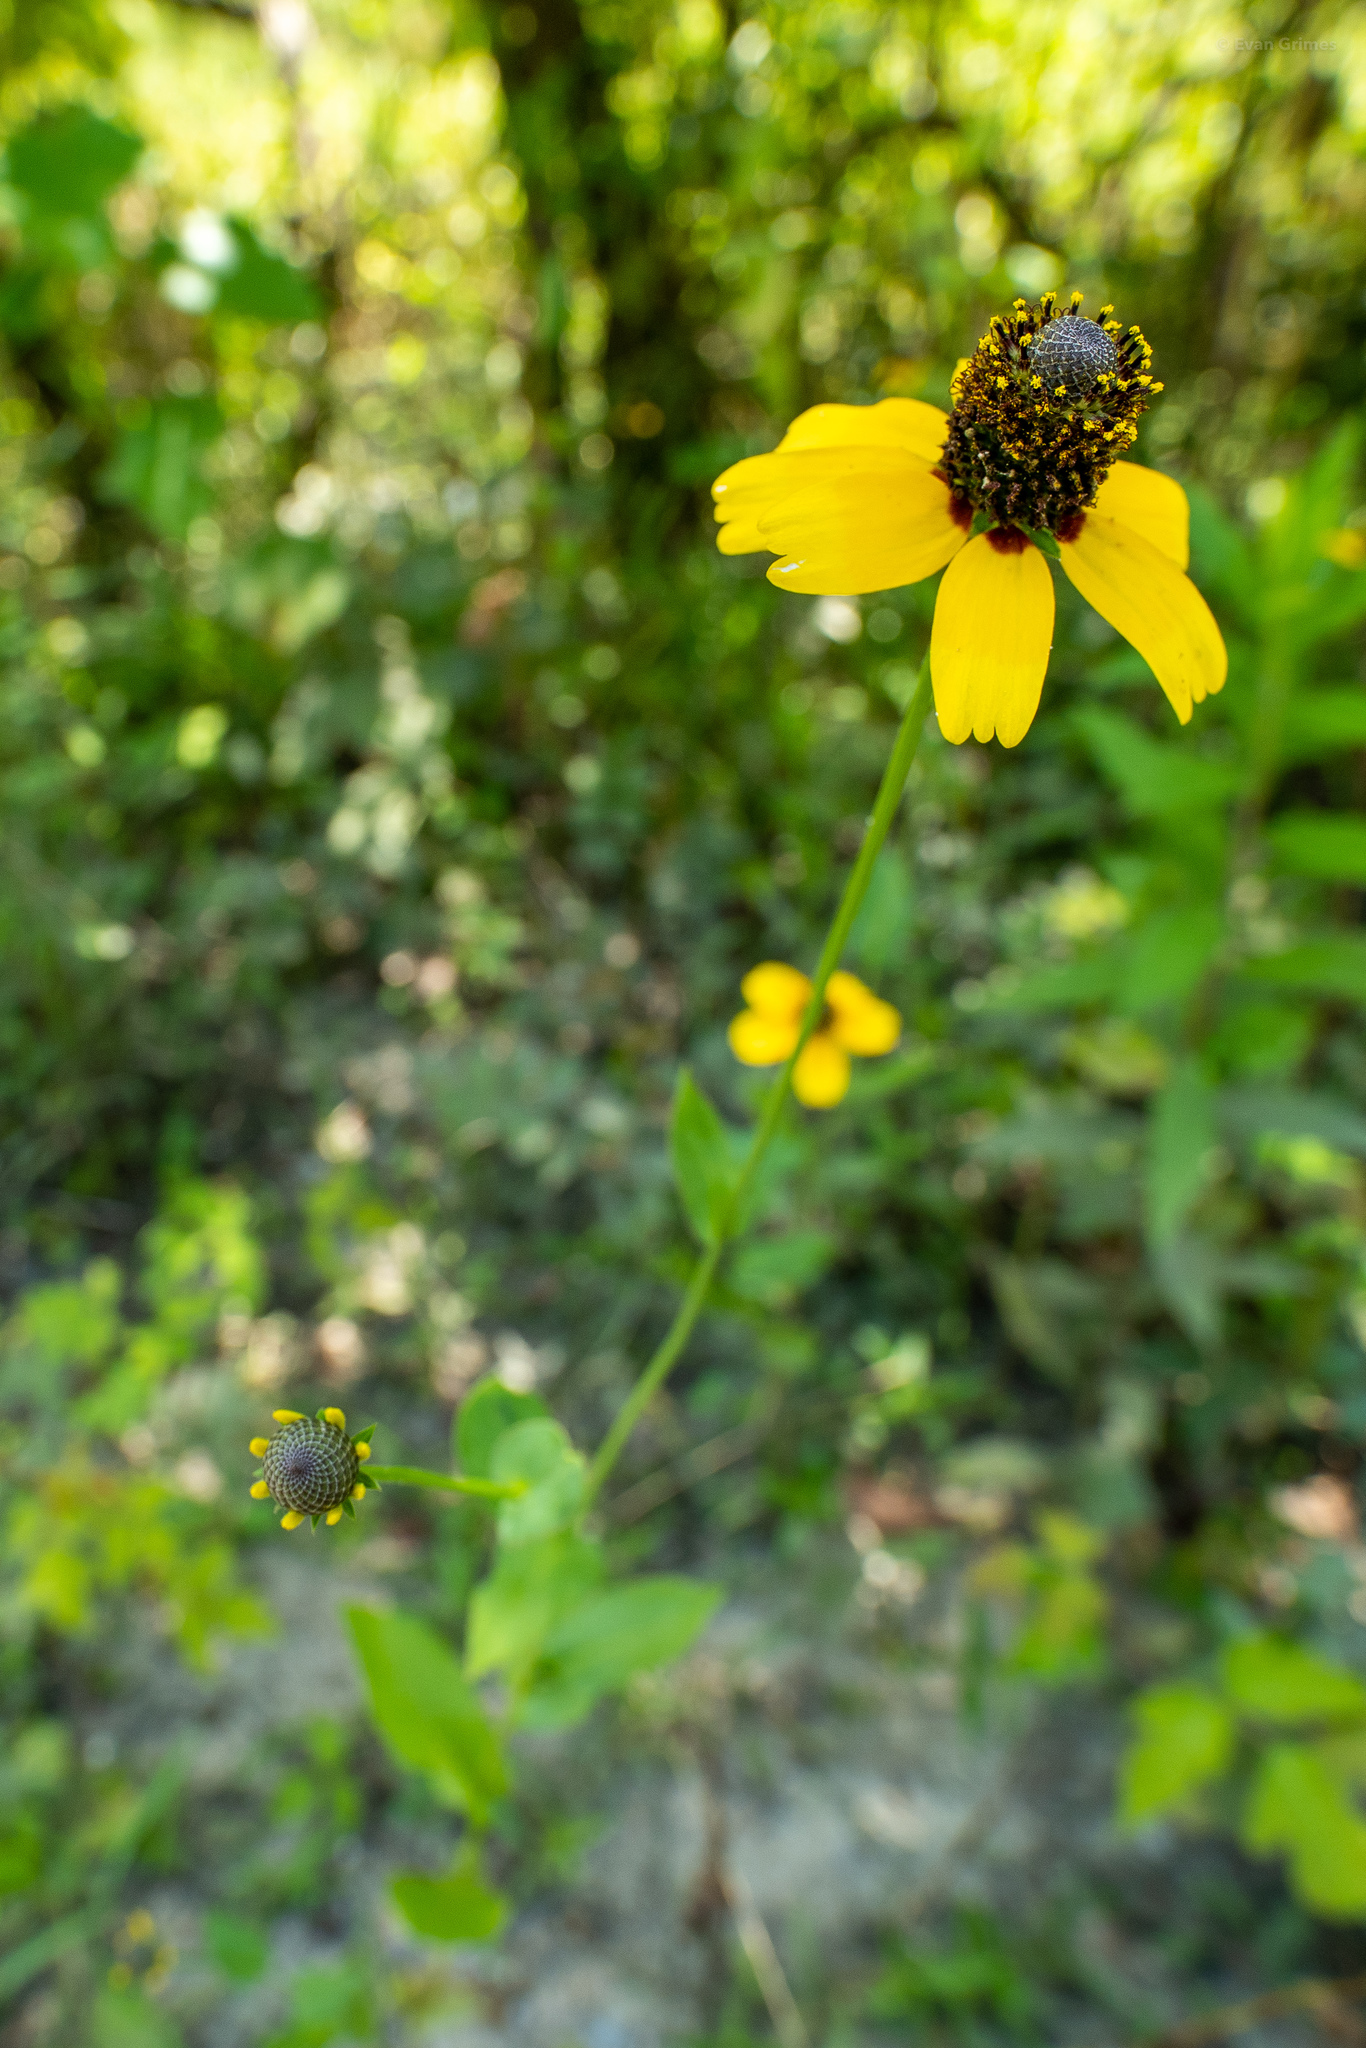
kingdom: Plantae
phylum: Tracheophyta
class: Magnoliopsida
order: Asterales
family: Asteraceae
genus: Rudbeckia
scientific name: Rudbeckia amplexicaulis
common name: Clasping-leaf coneflower
